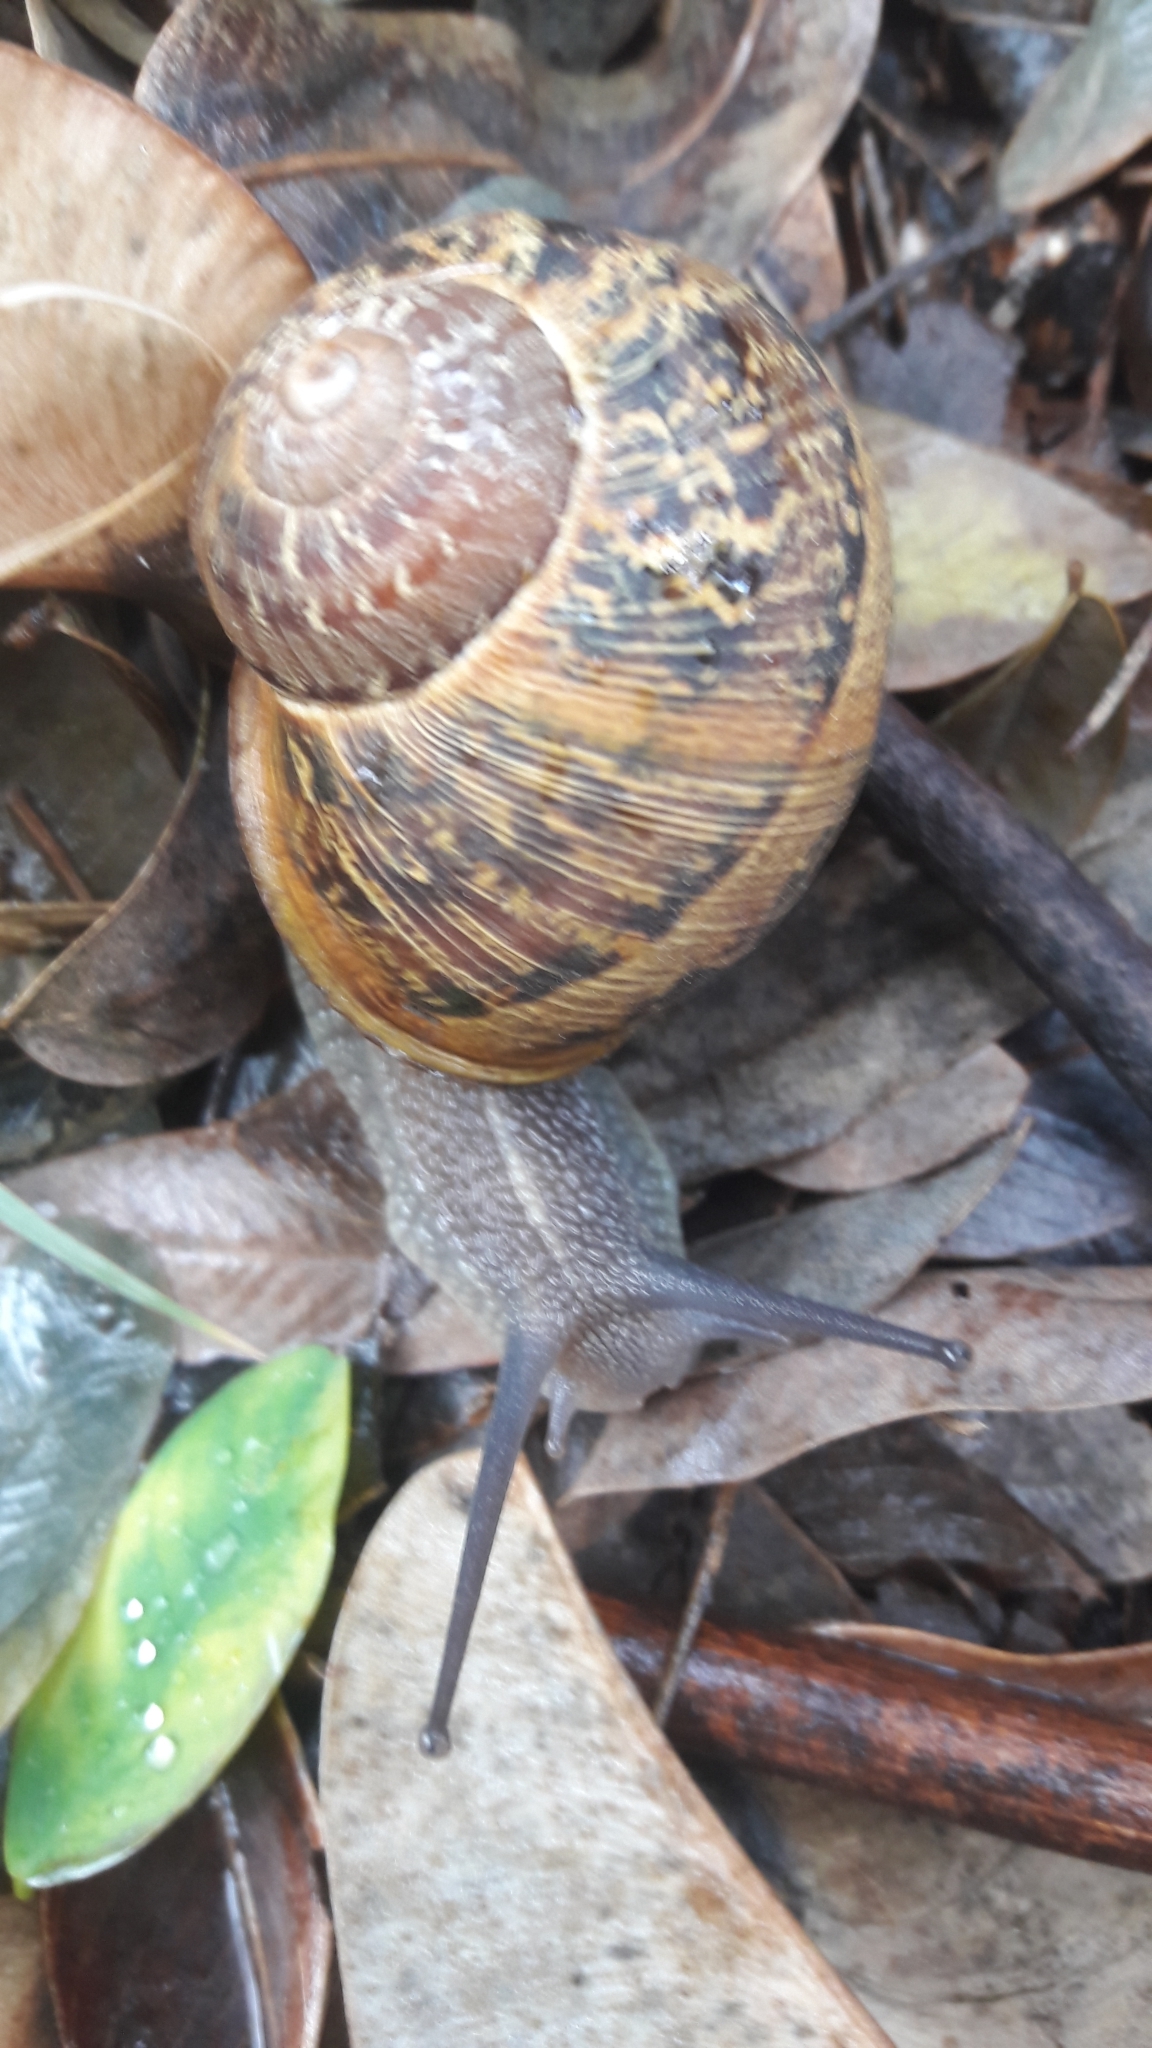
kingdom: Animalia
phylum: Mollusca
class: Gastropoda
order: Stylommatophora
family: Helicidae
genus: Cornu
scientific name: Cornu aspersum
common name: Brown garden snail
